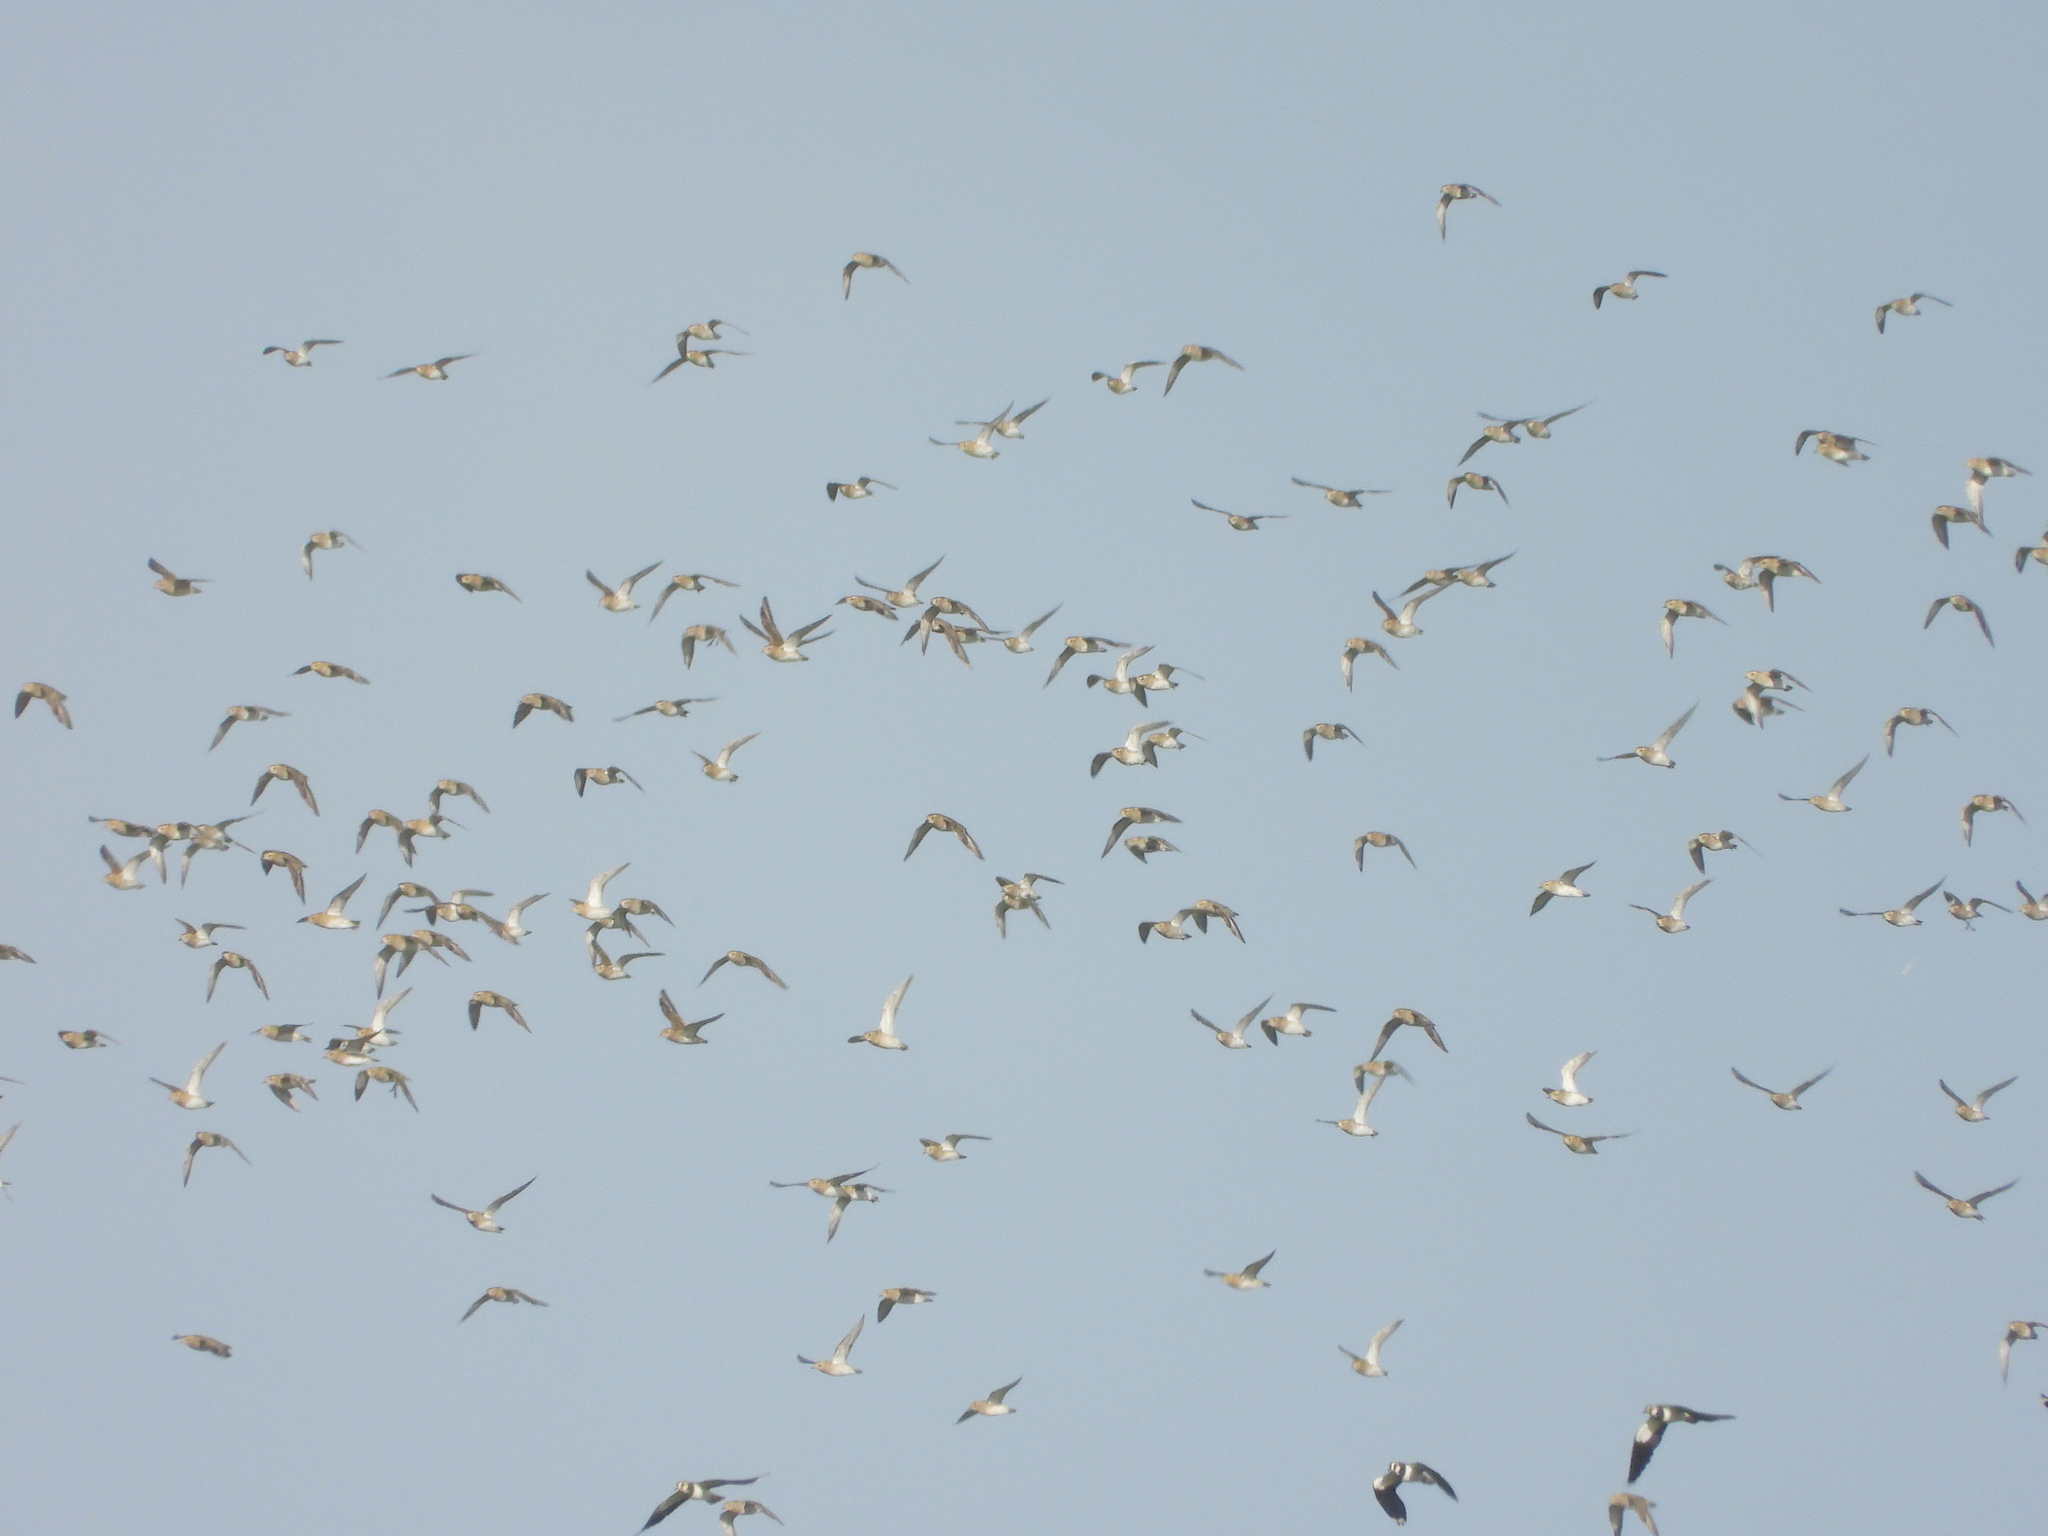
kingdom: Animalia
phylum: Chordata
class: Aves
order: Charadriiformes
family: Charadriidae
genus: Pluvialis
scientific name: Pluvialis apricaria
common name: European golden plover
